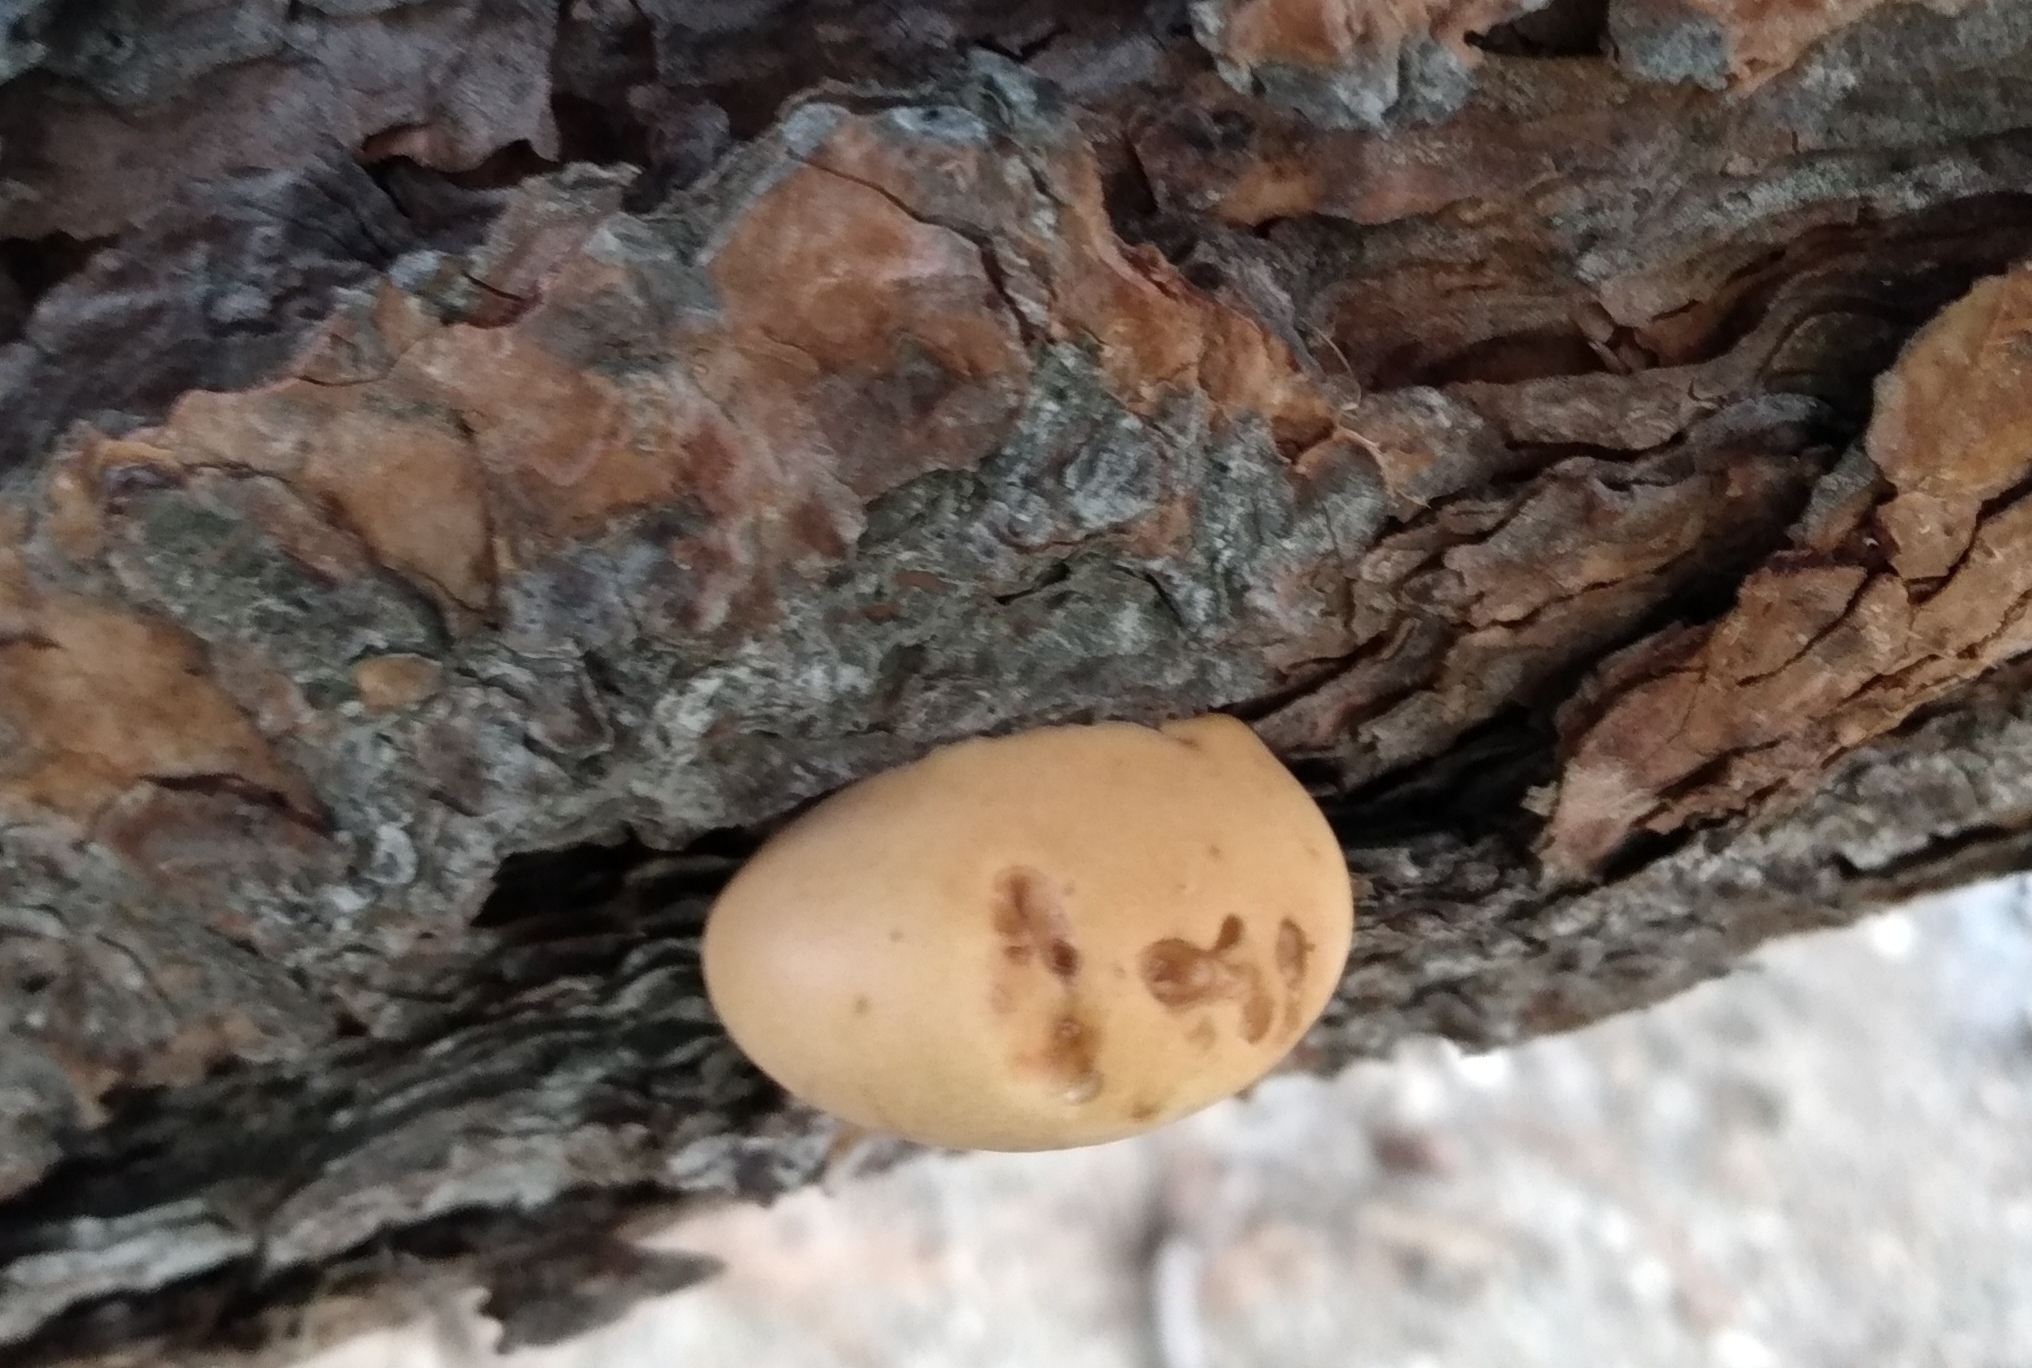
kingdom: Fungi
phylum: Basidiomycota
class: Agaricomycetes
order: Polyporales
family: Polyporaceae
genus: Cryptoporus
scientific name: Cryptoporus volvatus
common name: Veiled polypore
